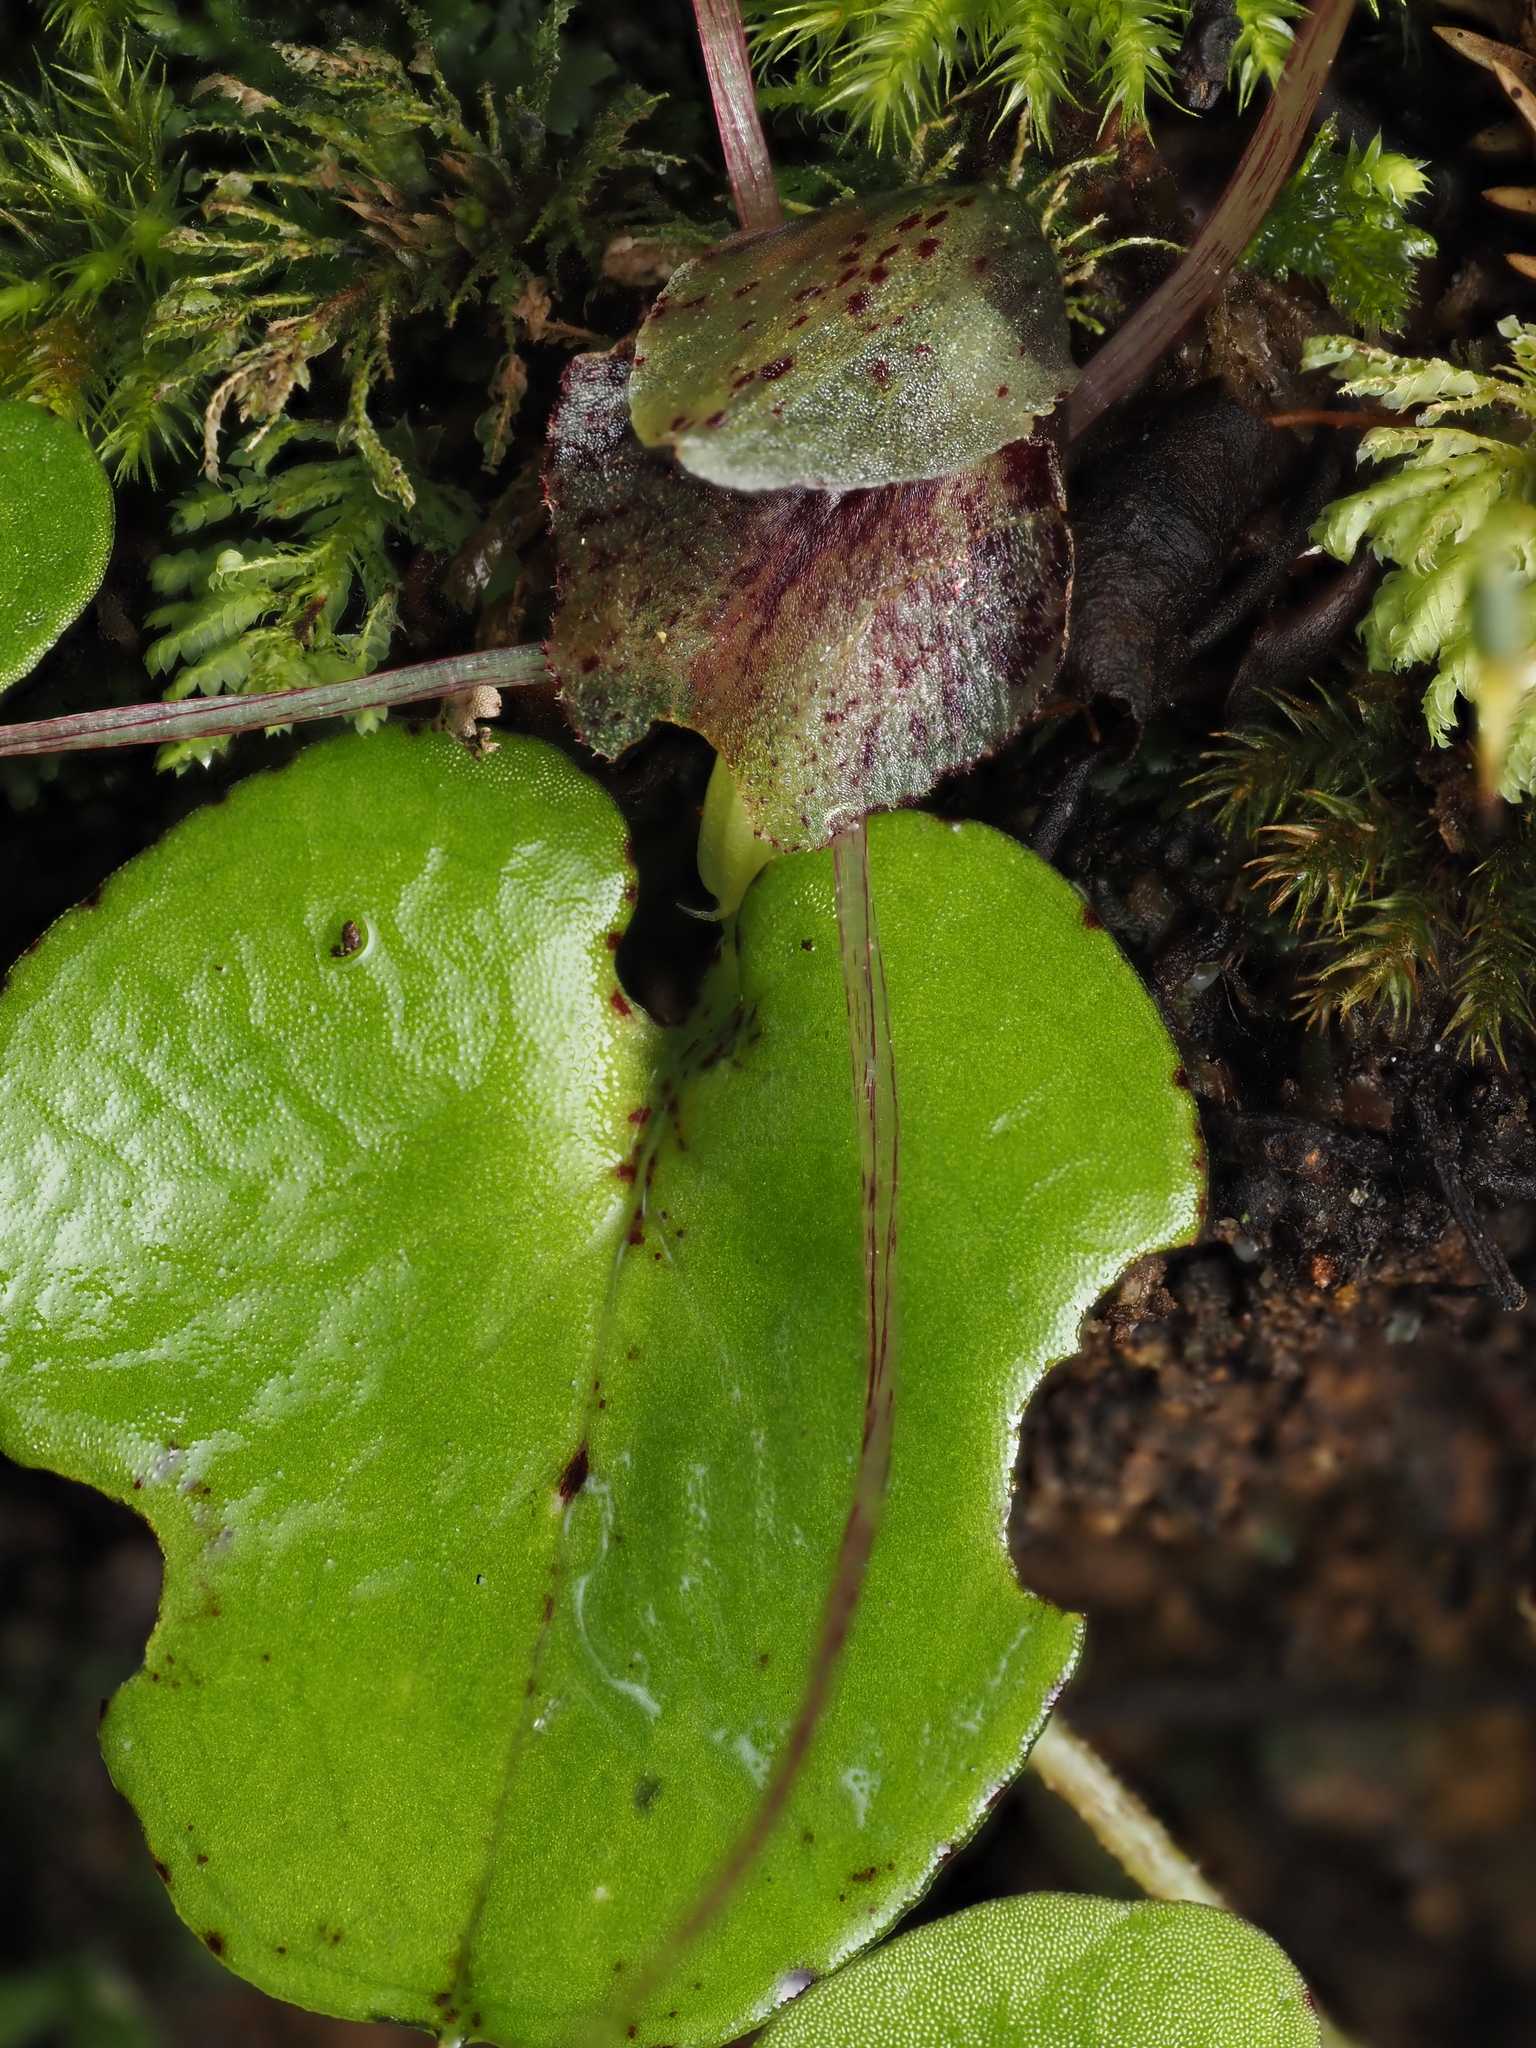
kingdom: Plantae
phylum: Tracheophyta
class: Liliopsida
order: Asparagales
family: Orchidaceae
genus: Corybas
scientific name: Corybas hatchii
